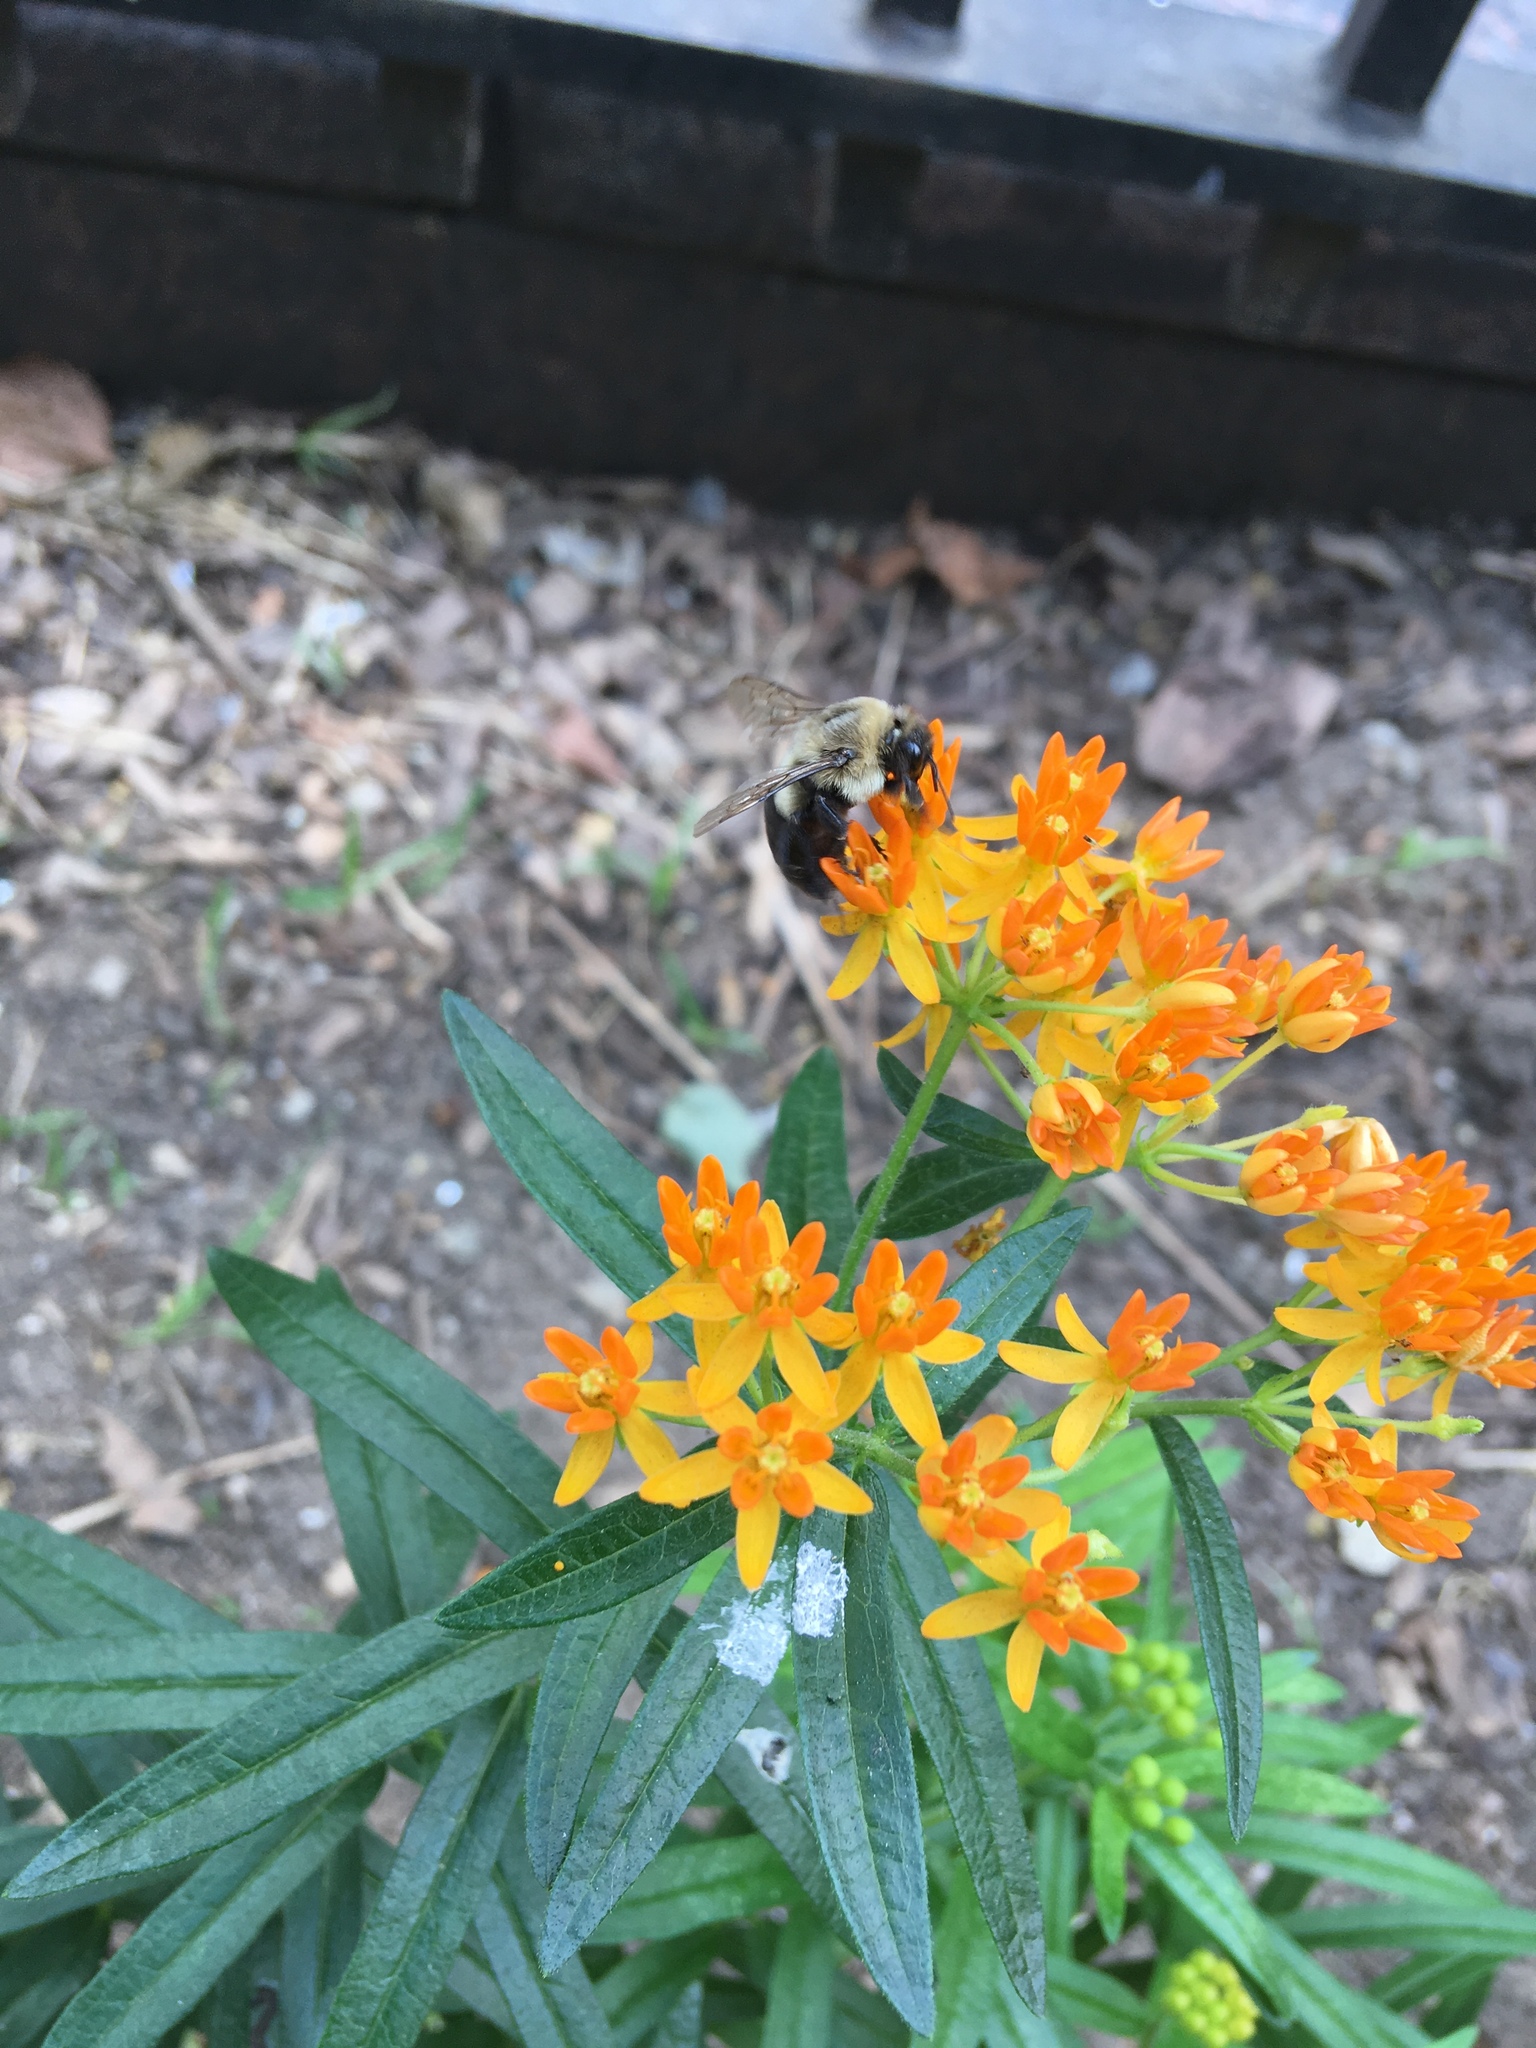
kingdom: Animalia
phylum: Arthropoda
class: Insecta
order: Hymenoptera
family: Apidae
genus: Bombus
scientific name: Bombus impatiens
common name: Common eastern bumble bee
